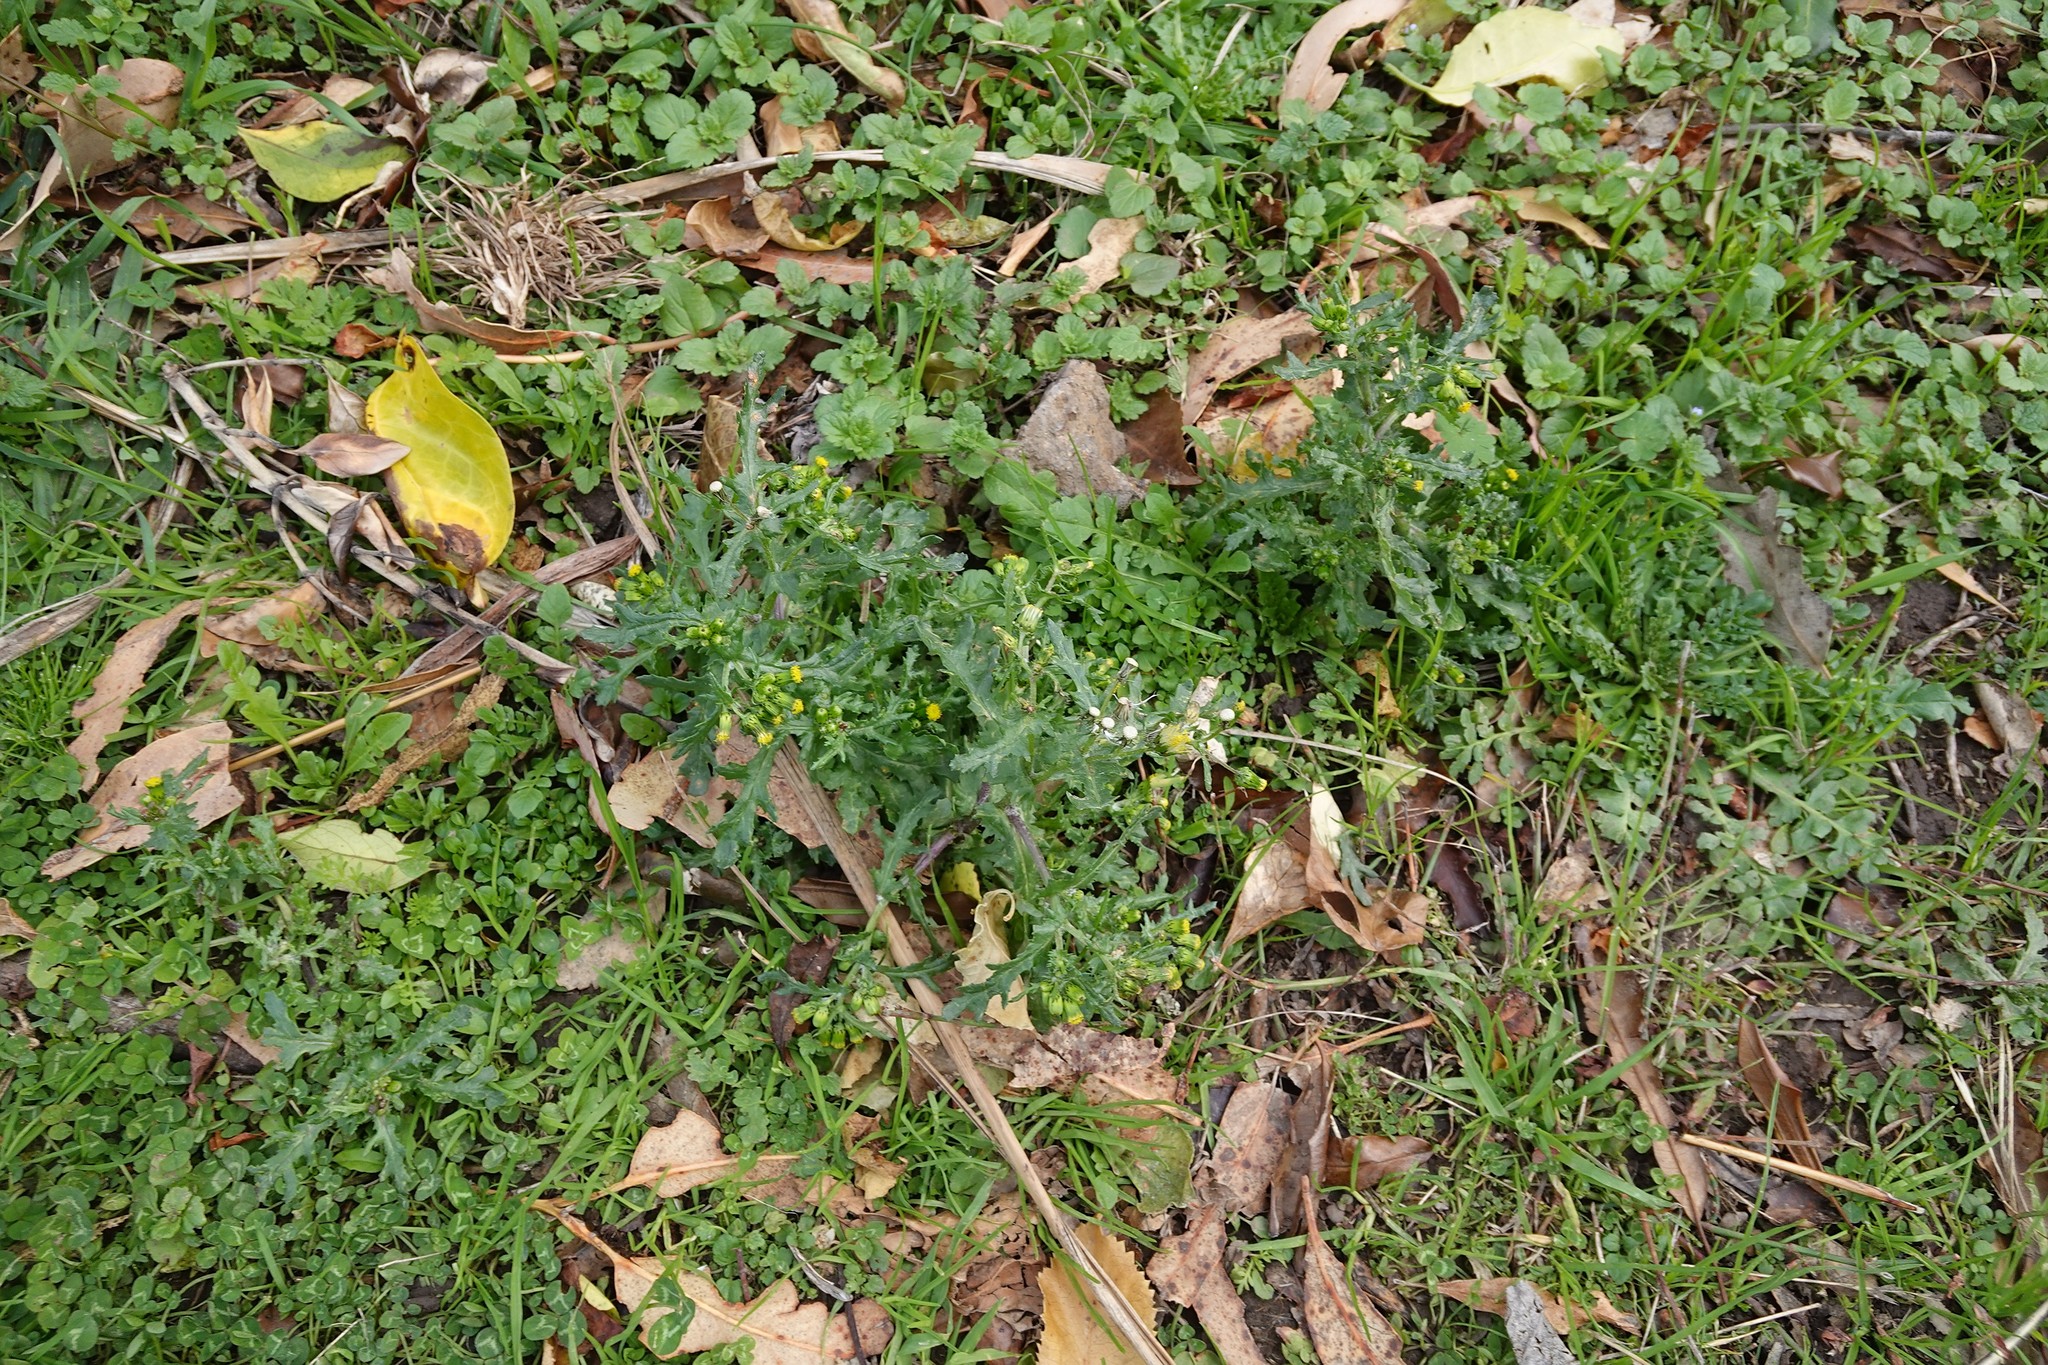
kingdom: Plantae
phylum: Tracheophyta
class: Magnoliopsida
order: Asterales
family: Asteraceae
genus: Senecio
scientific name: Senecio vulgaris
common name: Old-man-in-the-spring
